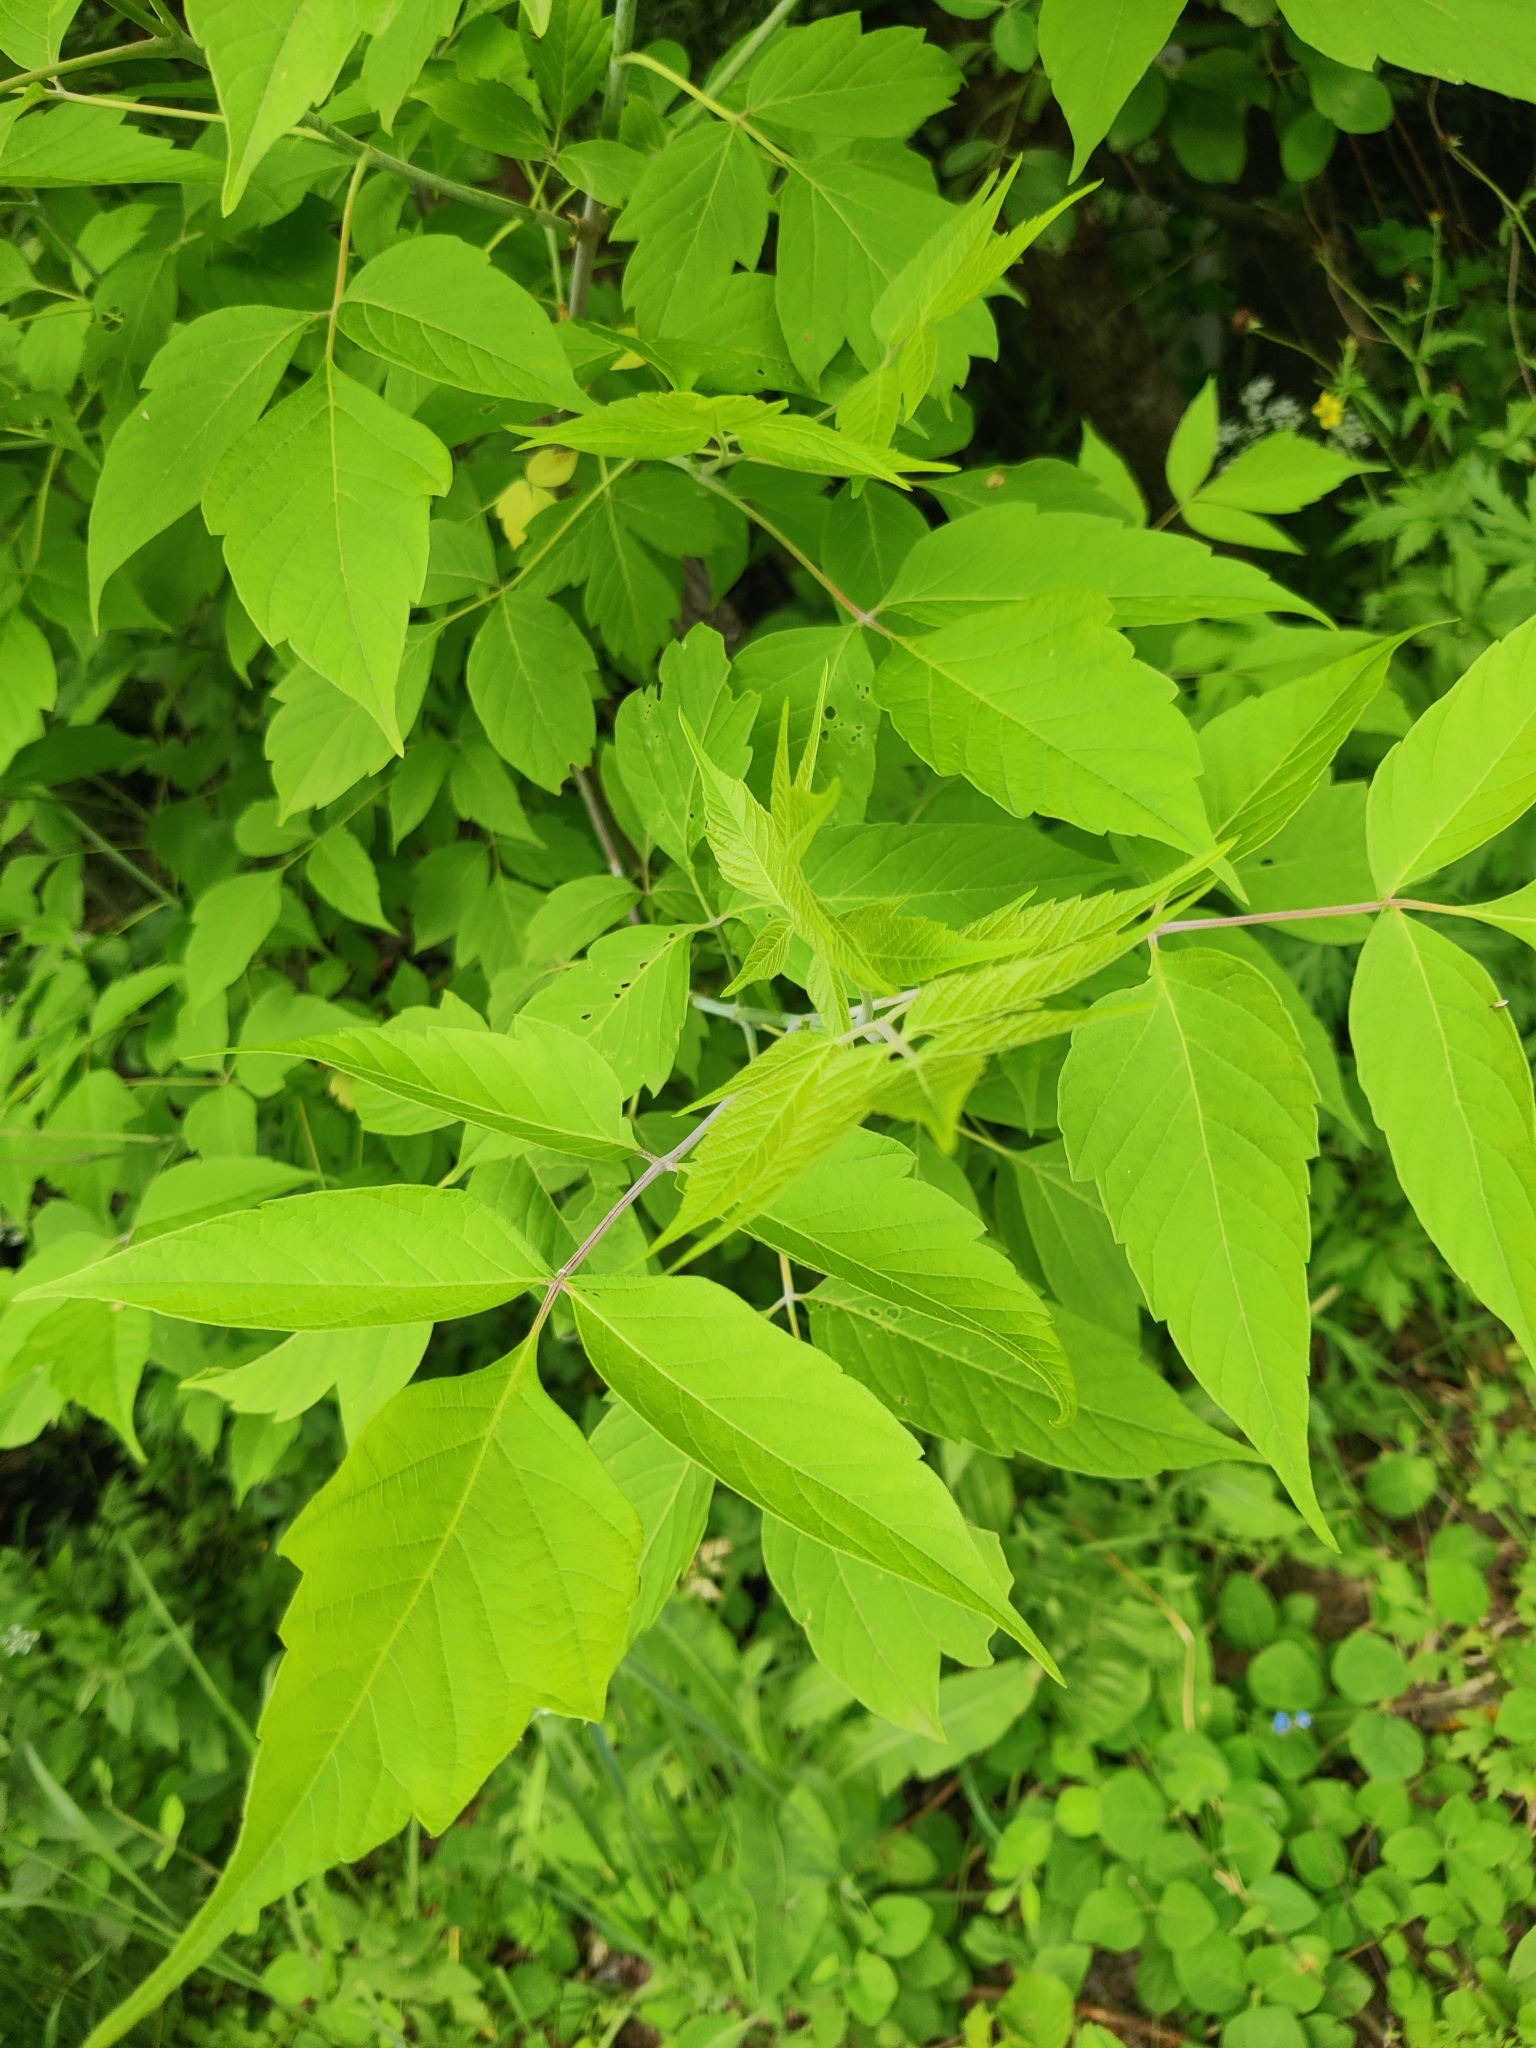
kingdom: Plantae
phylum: Tracheophyta
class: Magnoliopsida
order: Sapindales
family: Sapindaceae
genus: Acer
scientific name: Acer negundo
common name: Ashleaf maple
